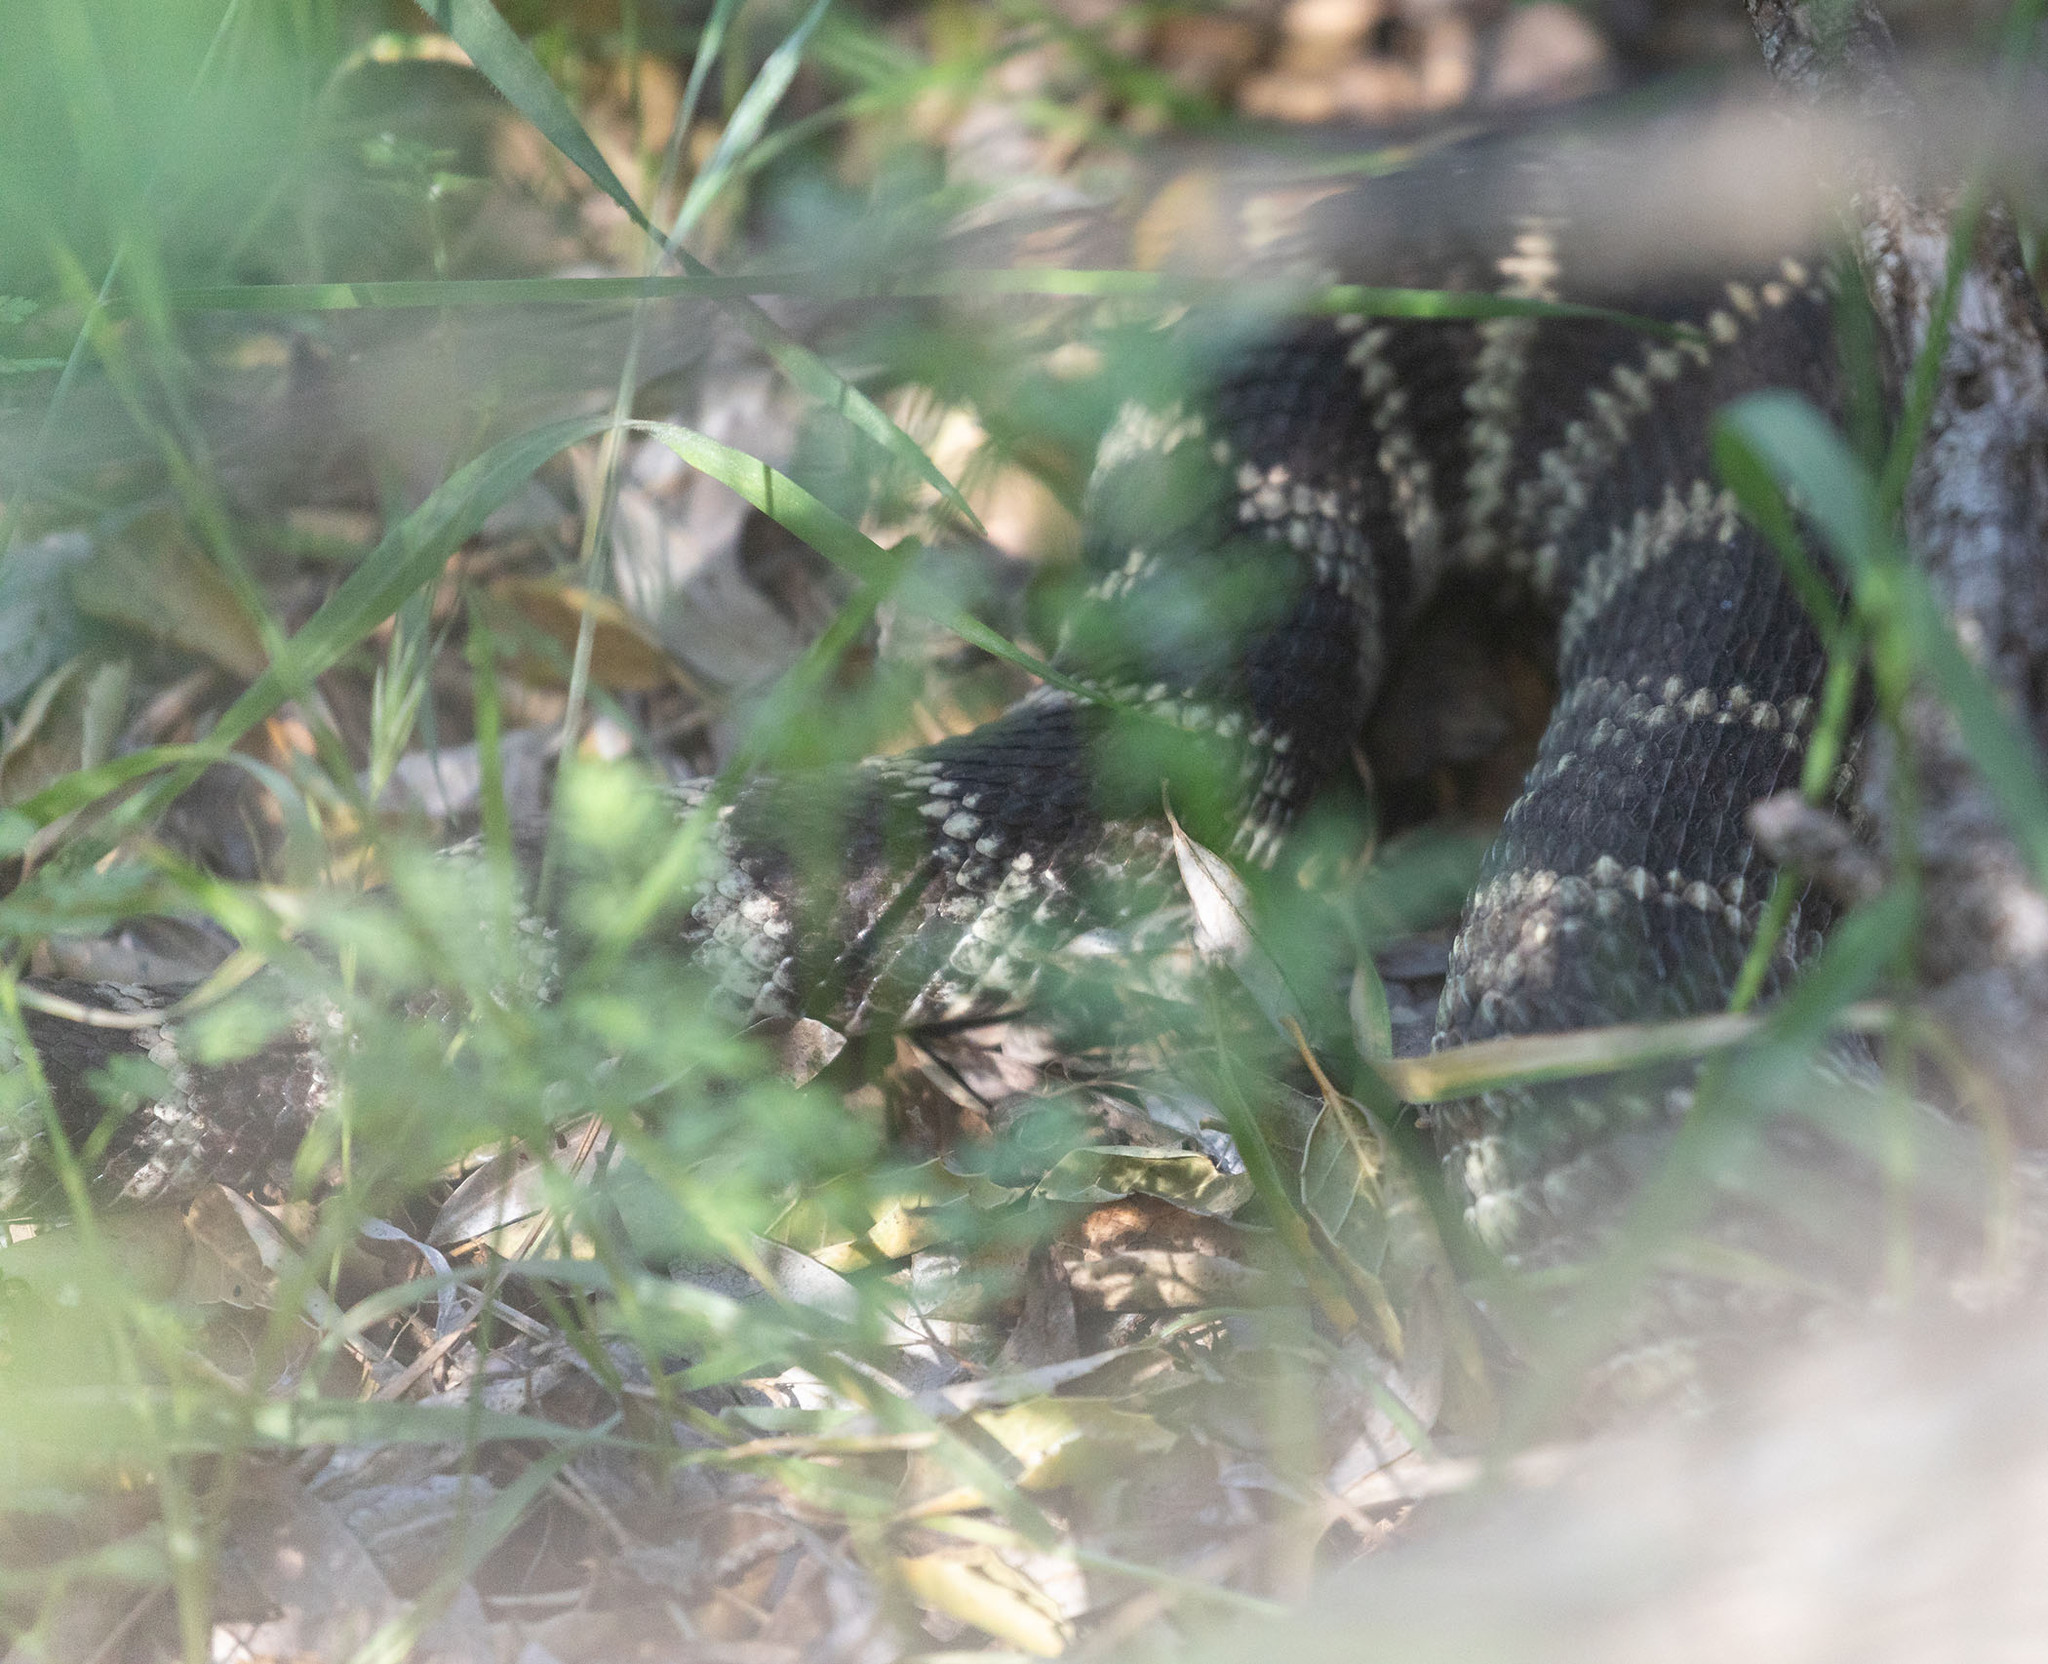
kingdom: Animalia
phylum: Chordata
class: Squamata
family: Viperidae
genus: Crotalus
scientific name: Crotalus oreganus
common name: Abyssus
